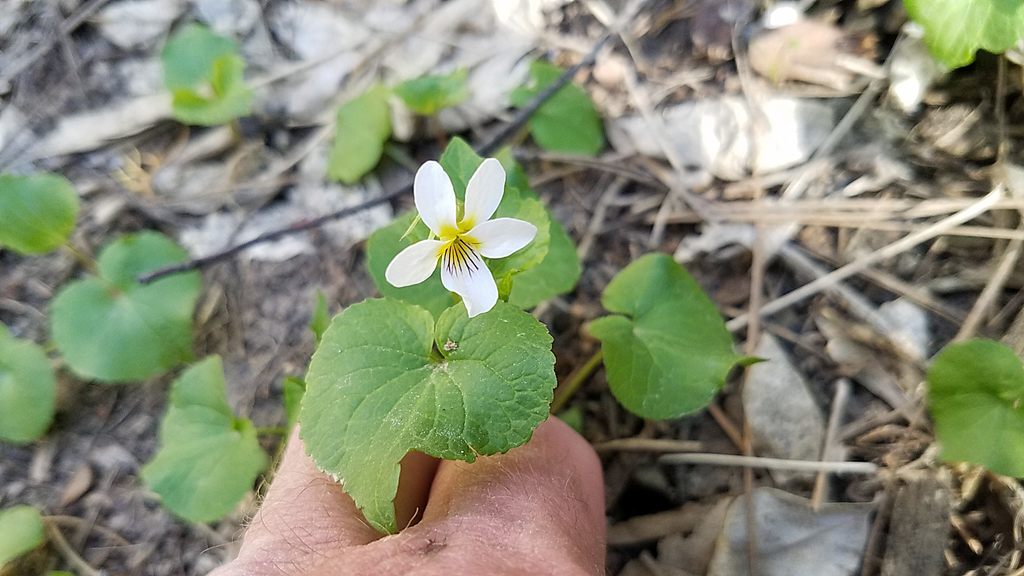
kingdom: Plantae
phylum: Tracheophyta
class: Magnoliopsida
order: Malpighiales
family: Violaceae
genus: Viola
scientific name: Viola canadensis
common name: Canada violet
